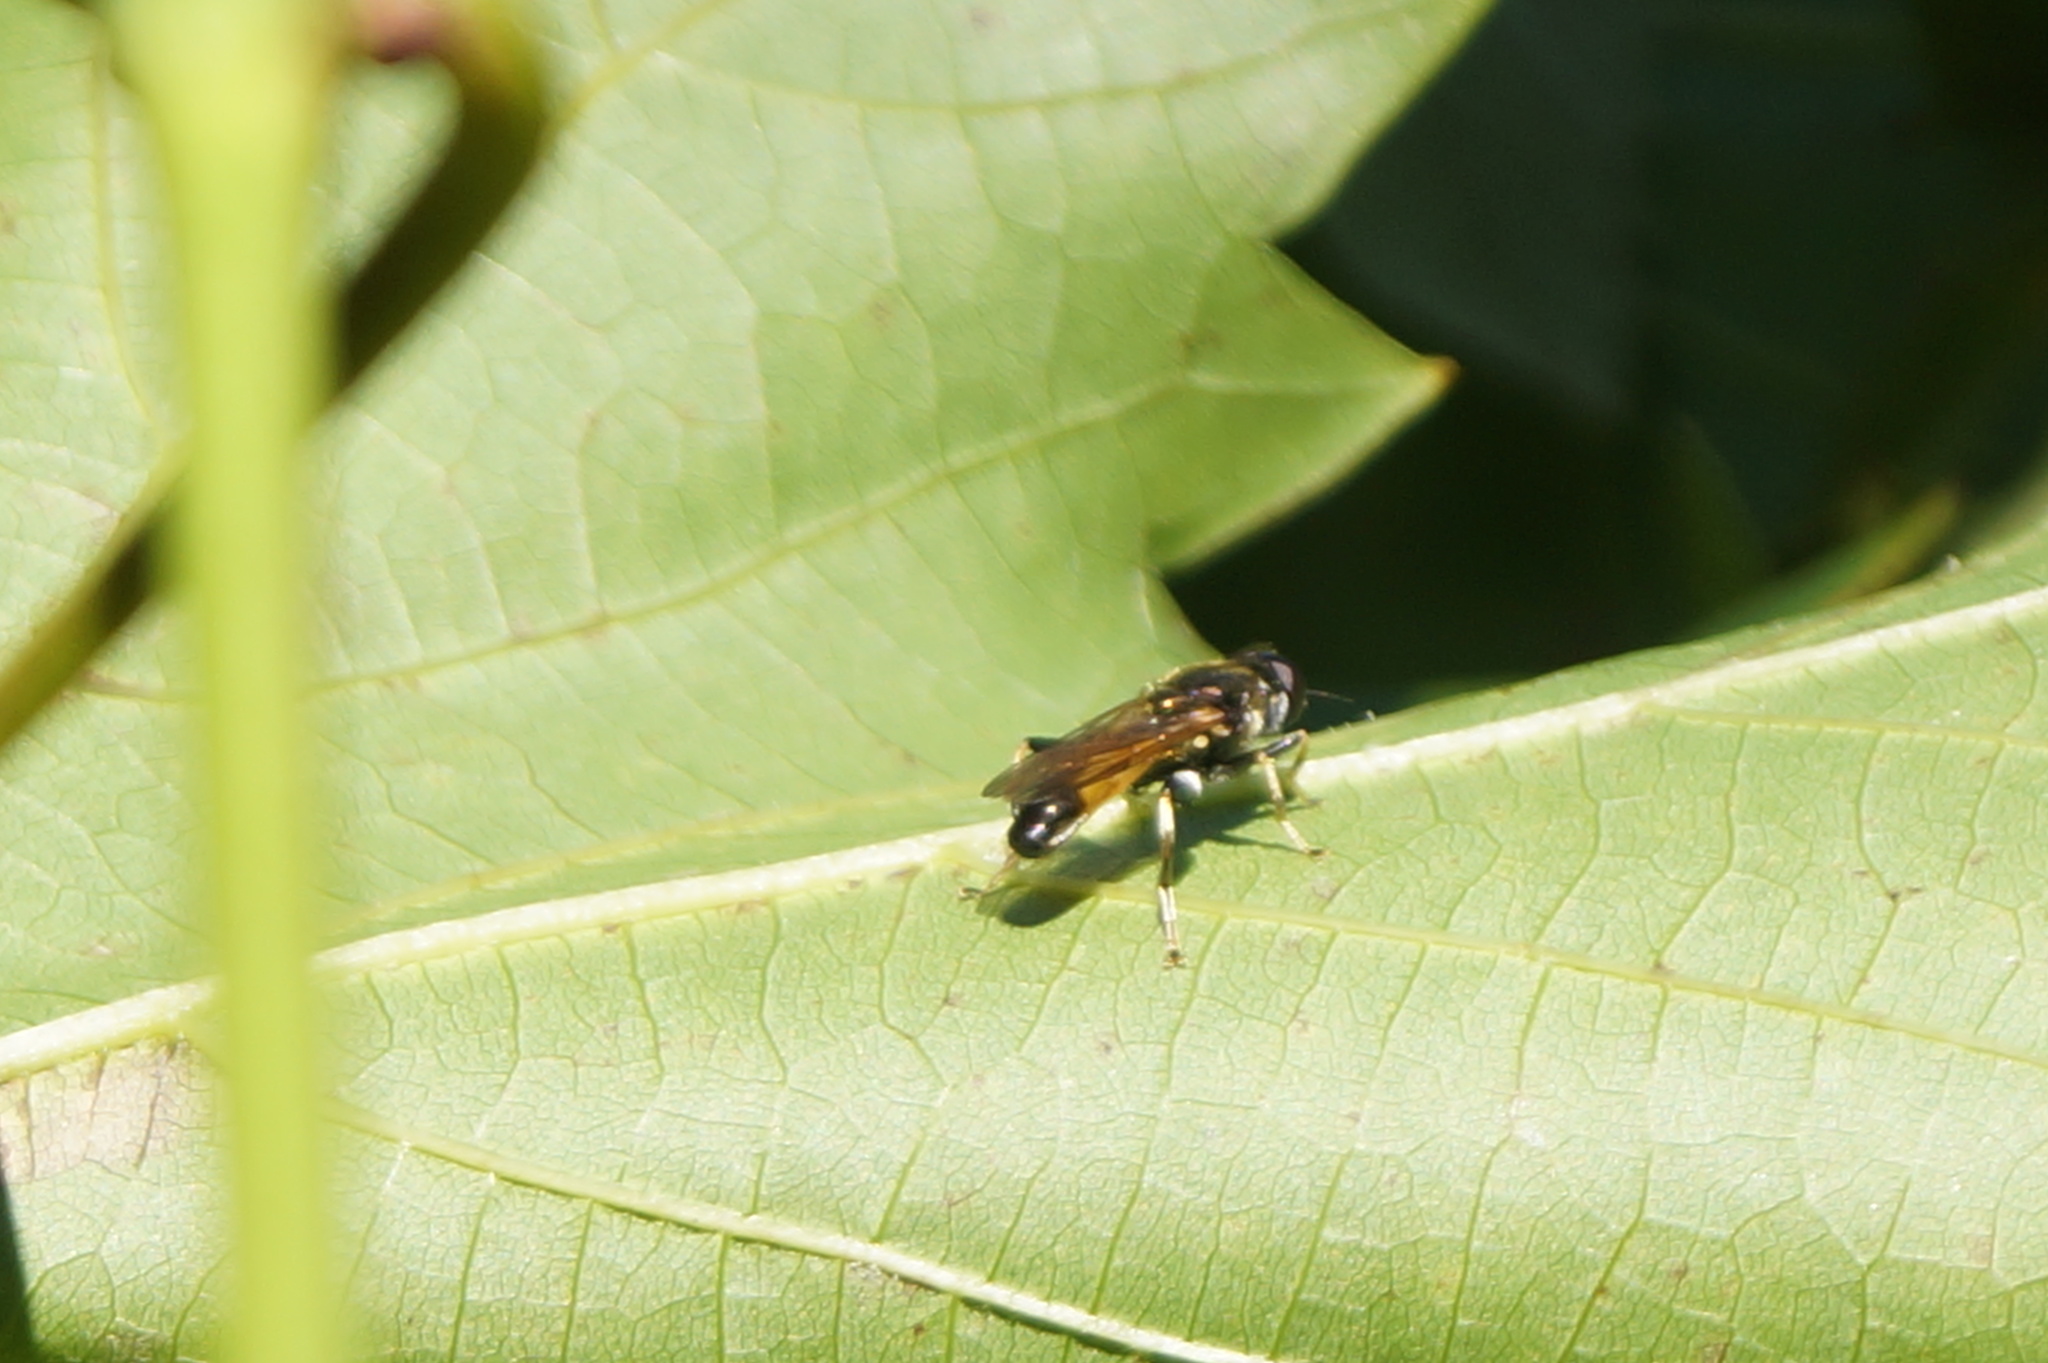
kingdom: Animalia
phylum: Arthropoda
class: Insecta
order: Diptera
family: Syrphidae
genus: Xylota
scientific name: Xylota segnis
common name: Brown-toed forest fly
